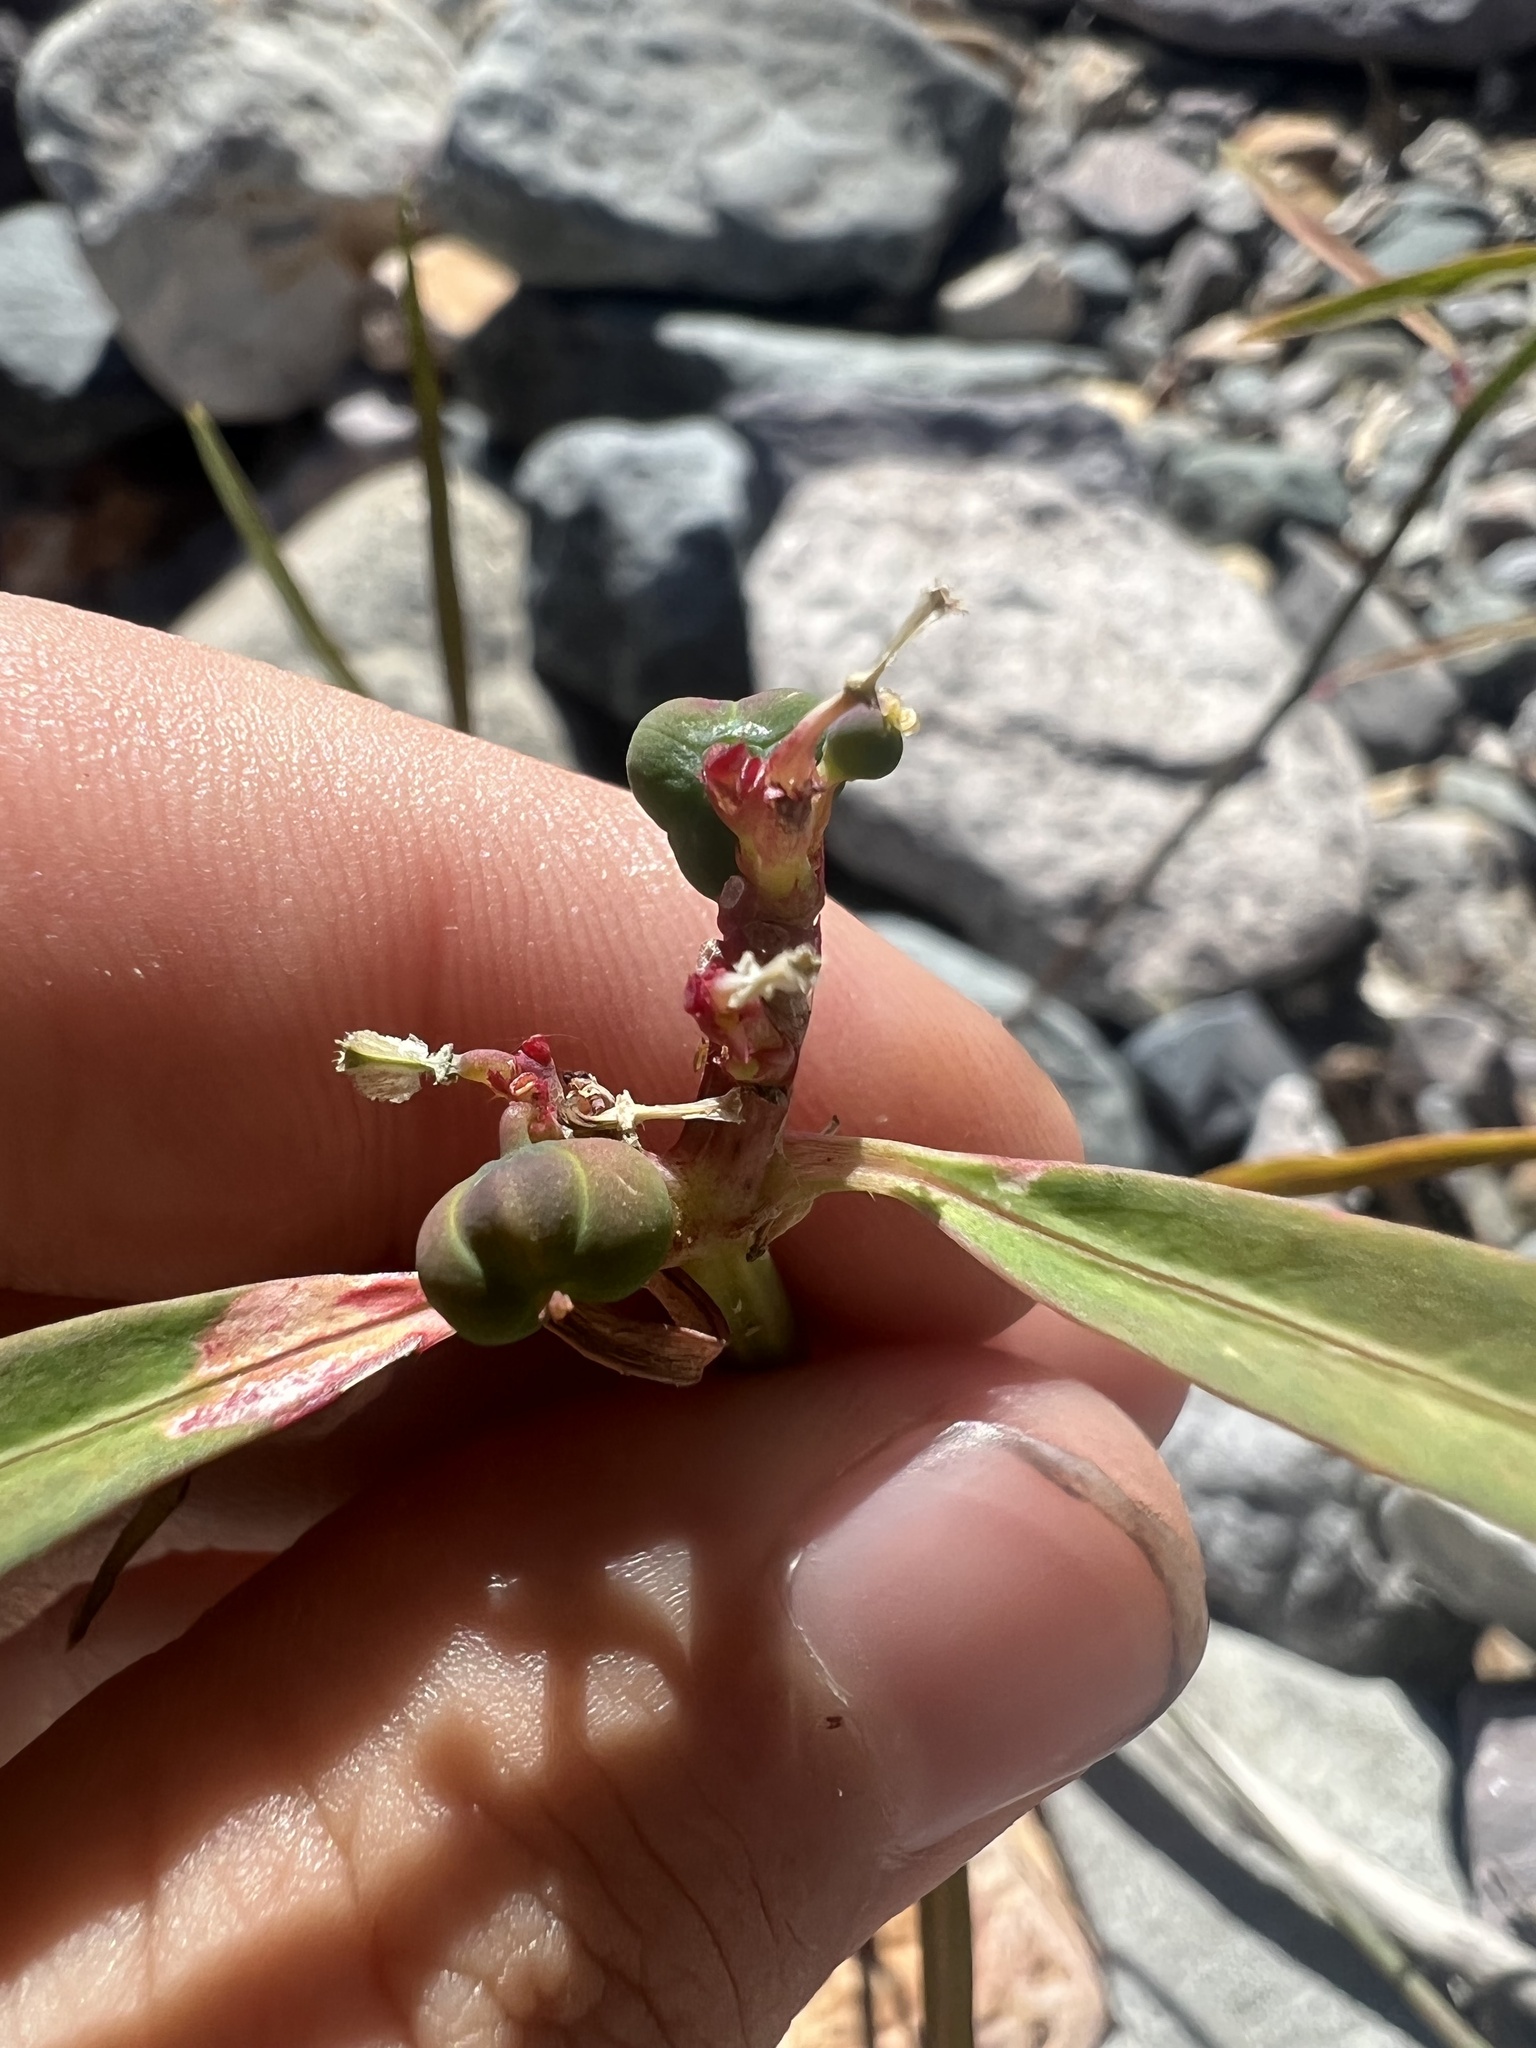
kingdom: Plantae
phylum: Tracheophyta
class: Magnoliopsida
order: Malpighiales
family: Euphorbiaceae
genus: Euphorbia
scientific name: Euphorbia heterophylla
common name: Mexican fireplant
